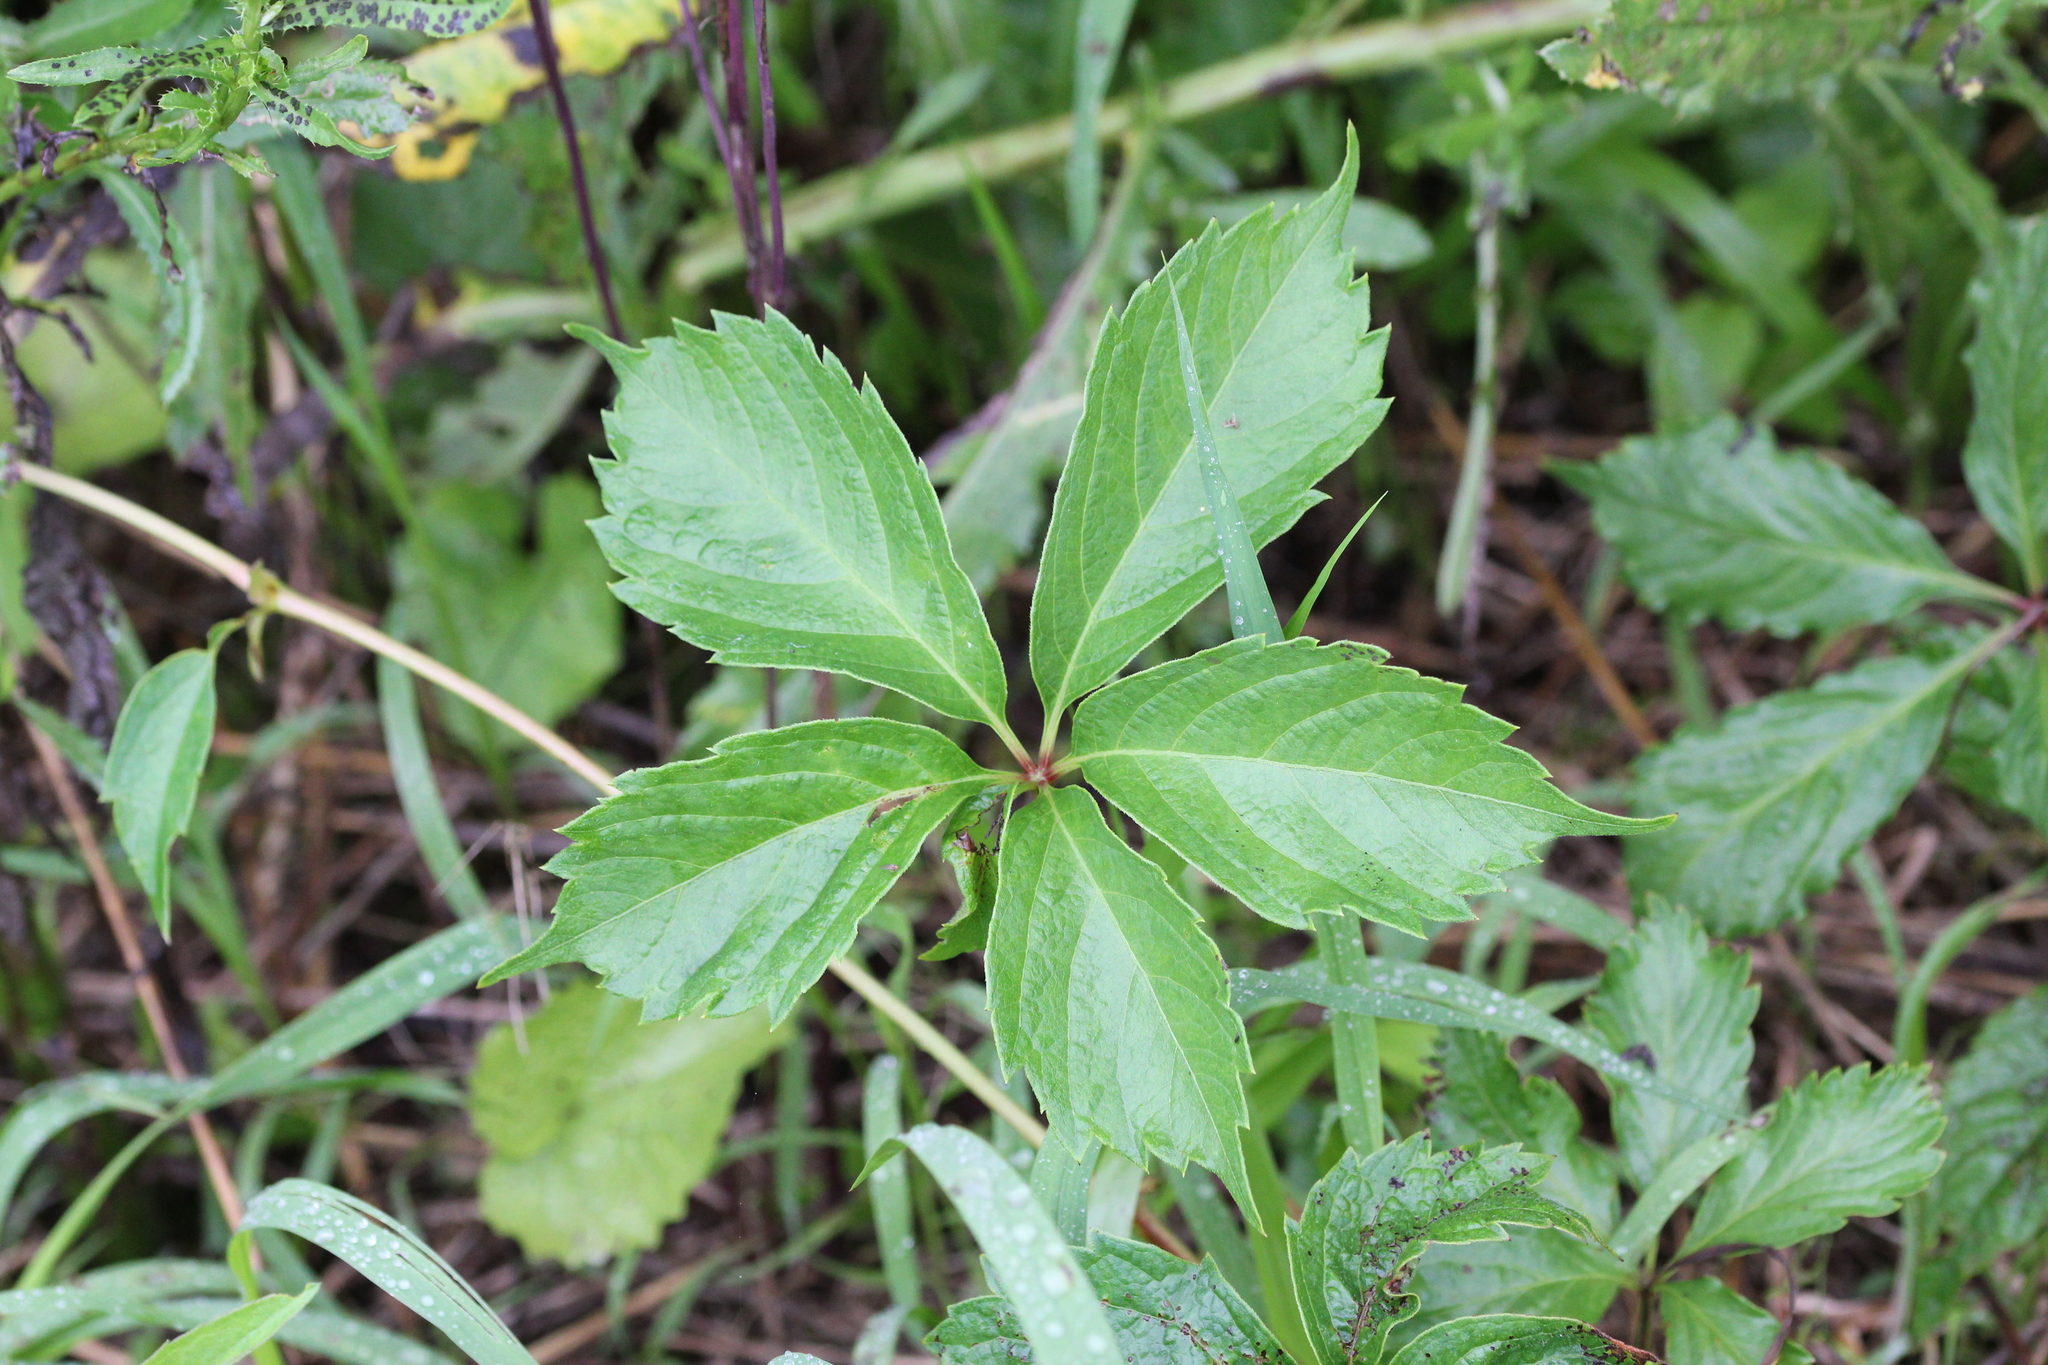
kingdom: Plantae
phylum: Tracheophyta
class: Magnoliopsida
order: Vitales
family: Vitaceae
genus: Parthenocissus
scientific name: Parthenocissus quinquefolia
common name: Virginia-creeper
